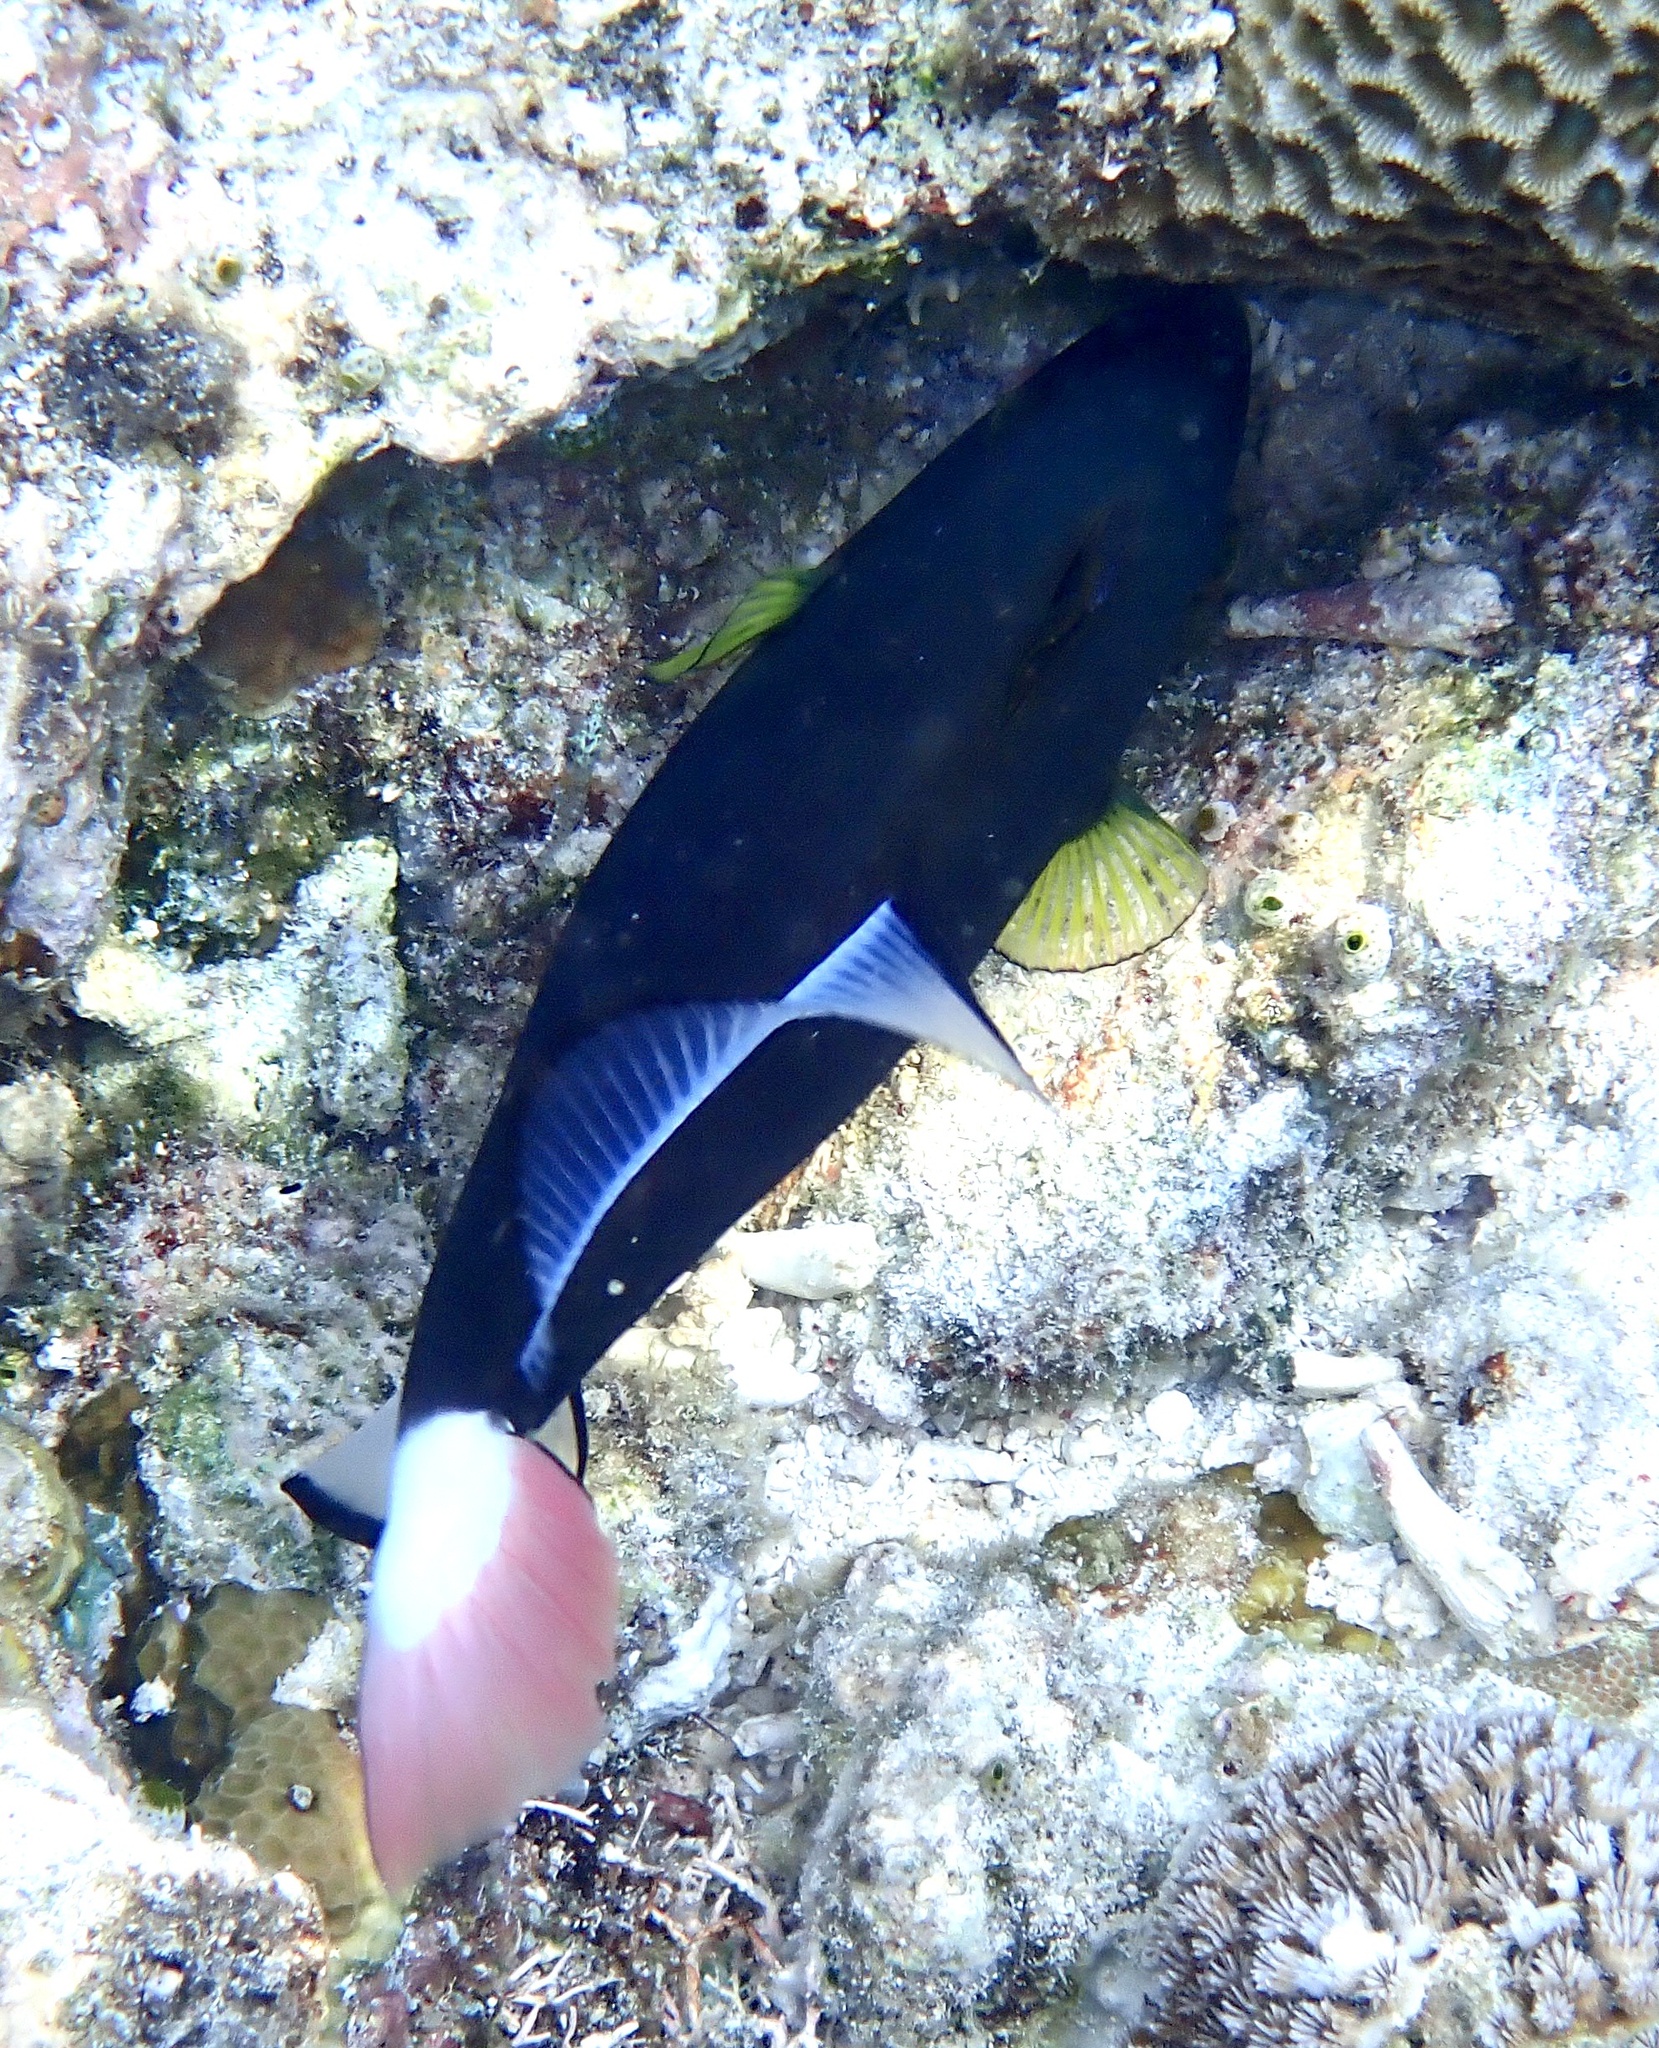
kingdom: Animalia
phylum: Chordata
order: Tetraodontiformes
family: Balistidae
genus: Melichthys
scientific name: Melichthys vidua
